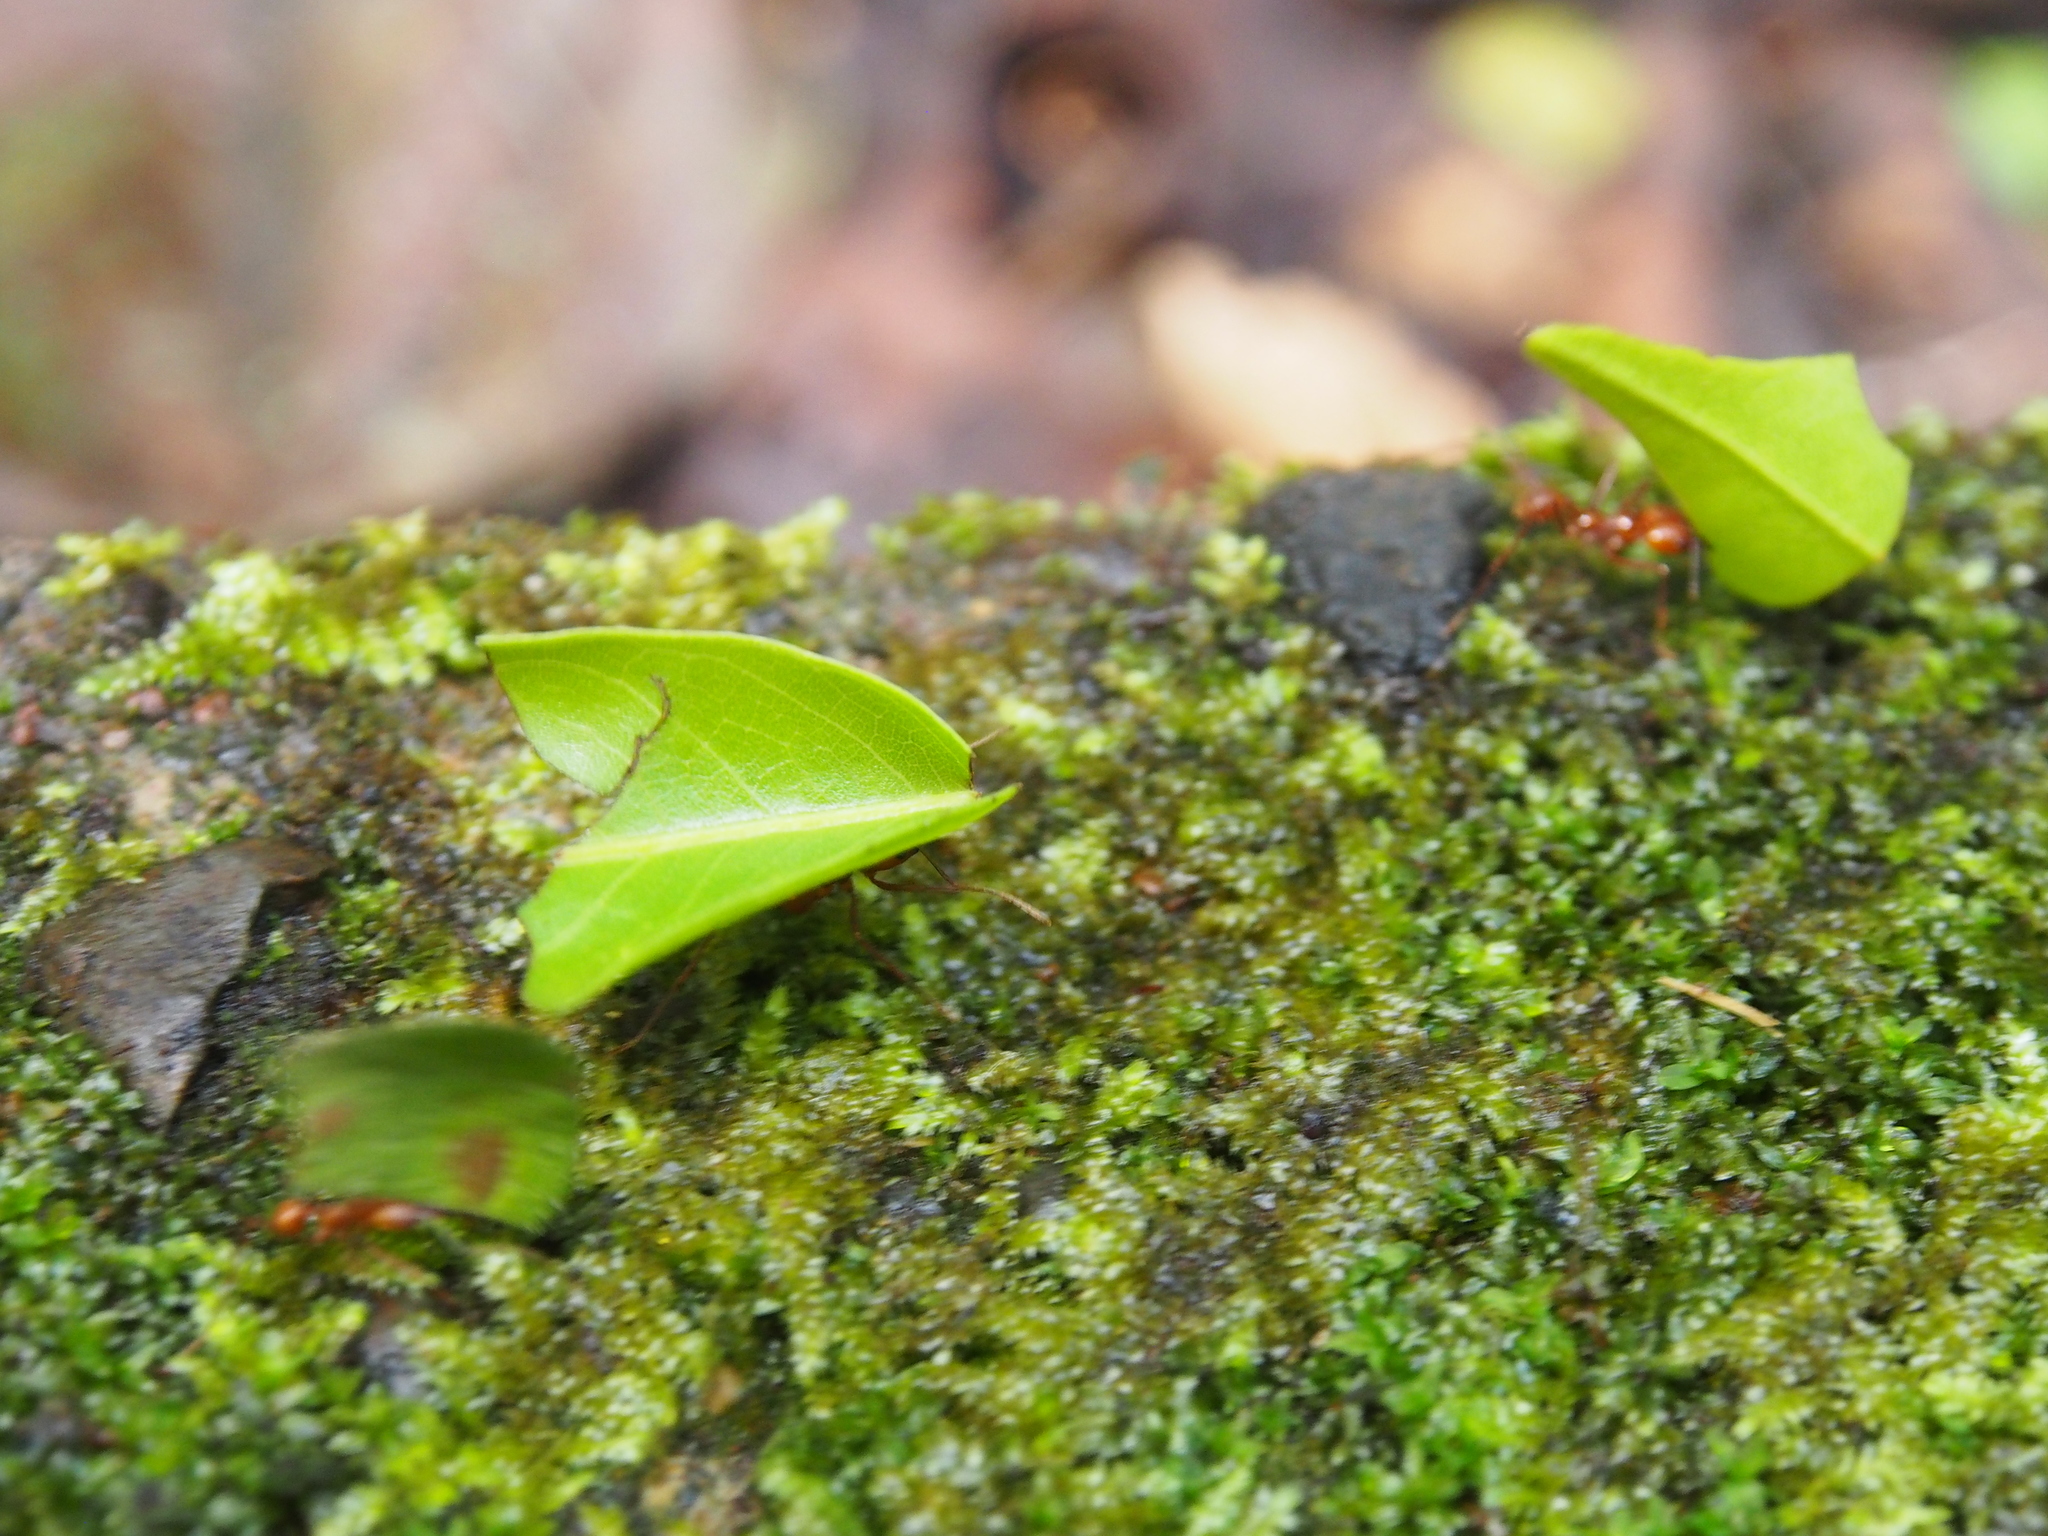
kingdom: Animalia
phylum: Arthropoda
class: Insecta
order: Hymenoptera
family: Formicidae
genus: Atta
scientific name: Atta cephalotes
